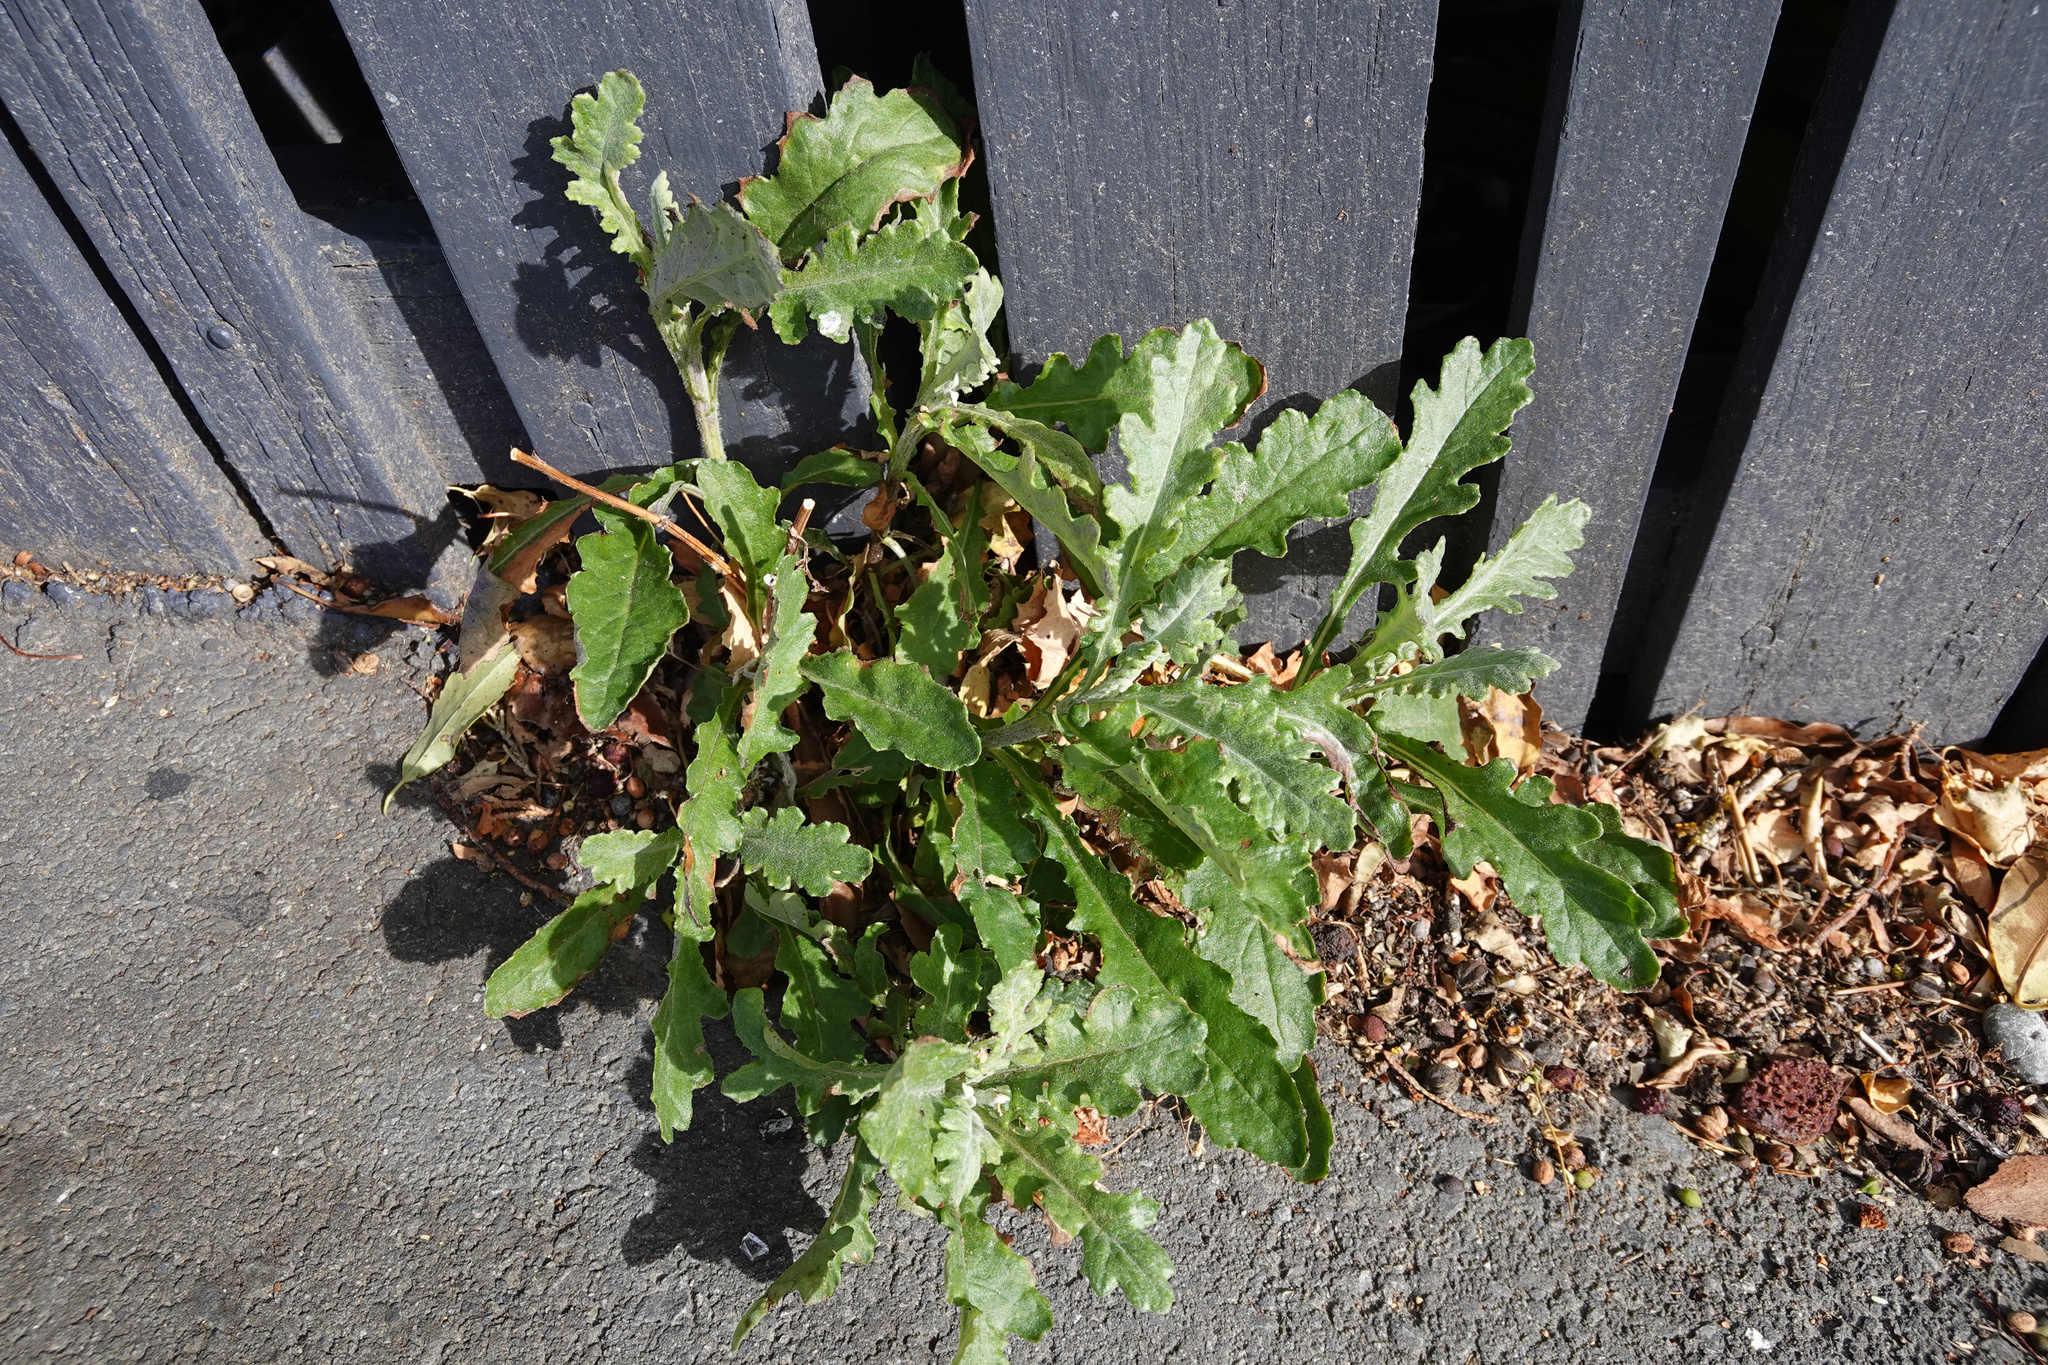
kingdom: Plantae
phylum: Tracheophyta
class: Magnoliopsida
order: Asterales
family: Asteraceae
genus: Senecio
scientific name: Senecio glomeratus
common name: Cutleaf burnweed
